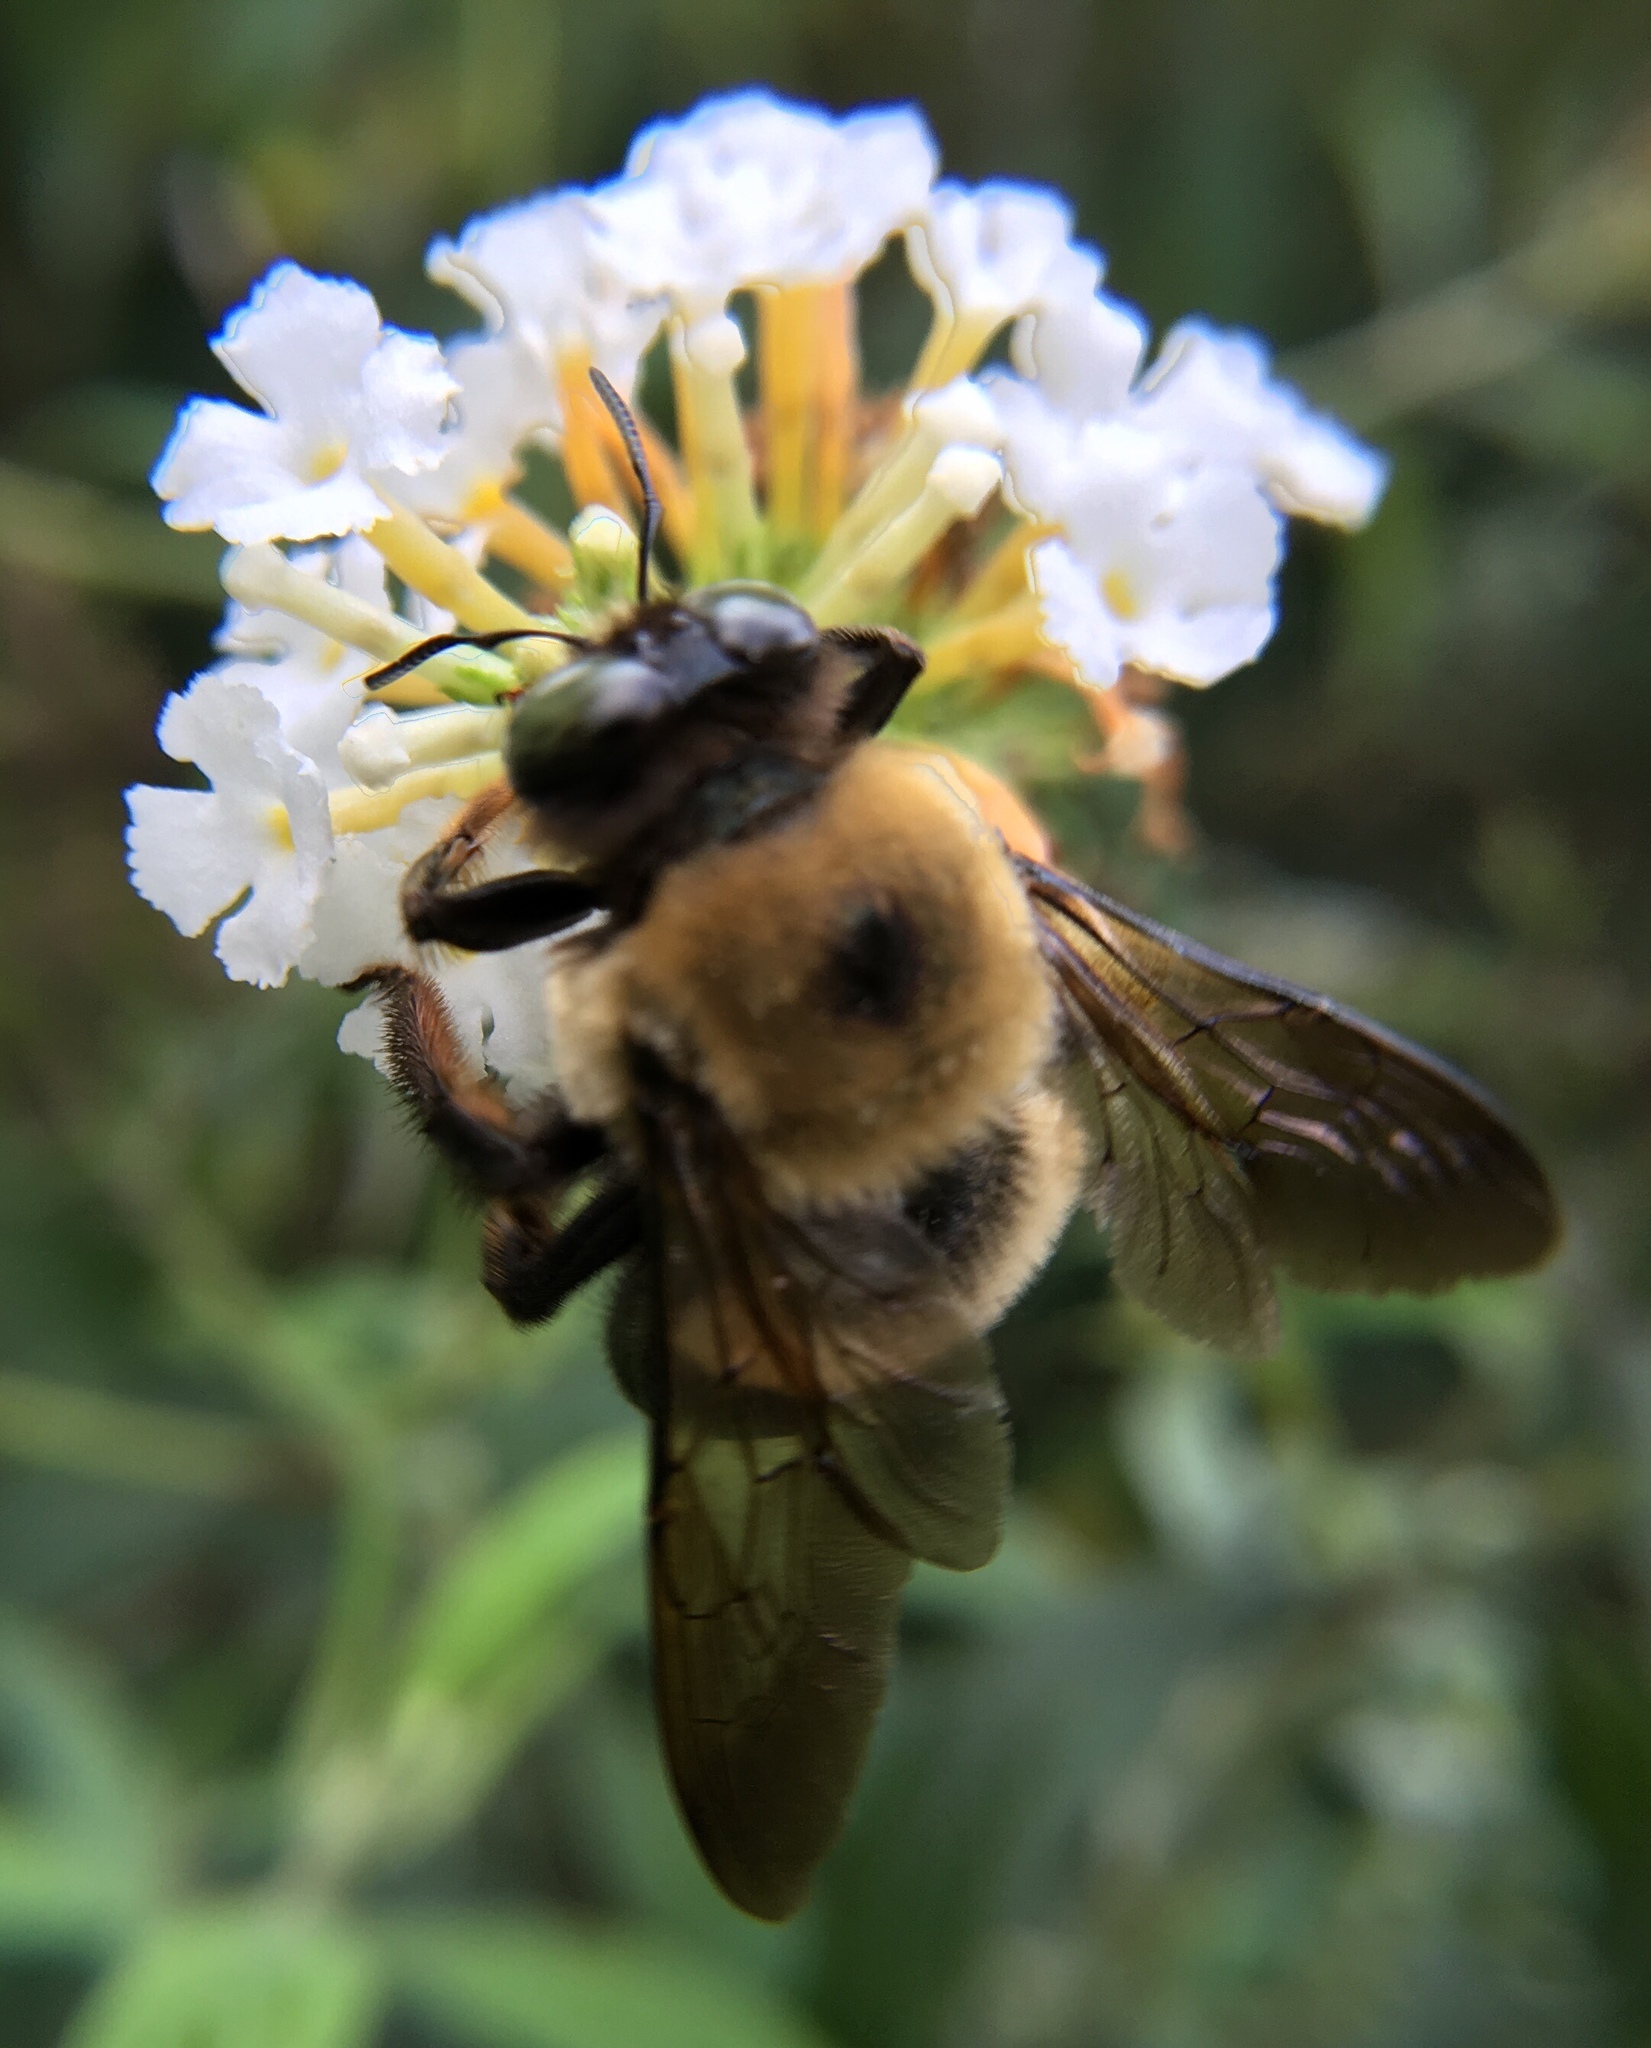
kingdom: Animalia
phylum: Arthropoda
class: Insecta
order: Hymenoptera
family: Apidae
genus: Xylocopa
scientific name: Xylocopa virginica
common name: Carpenter bee
